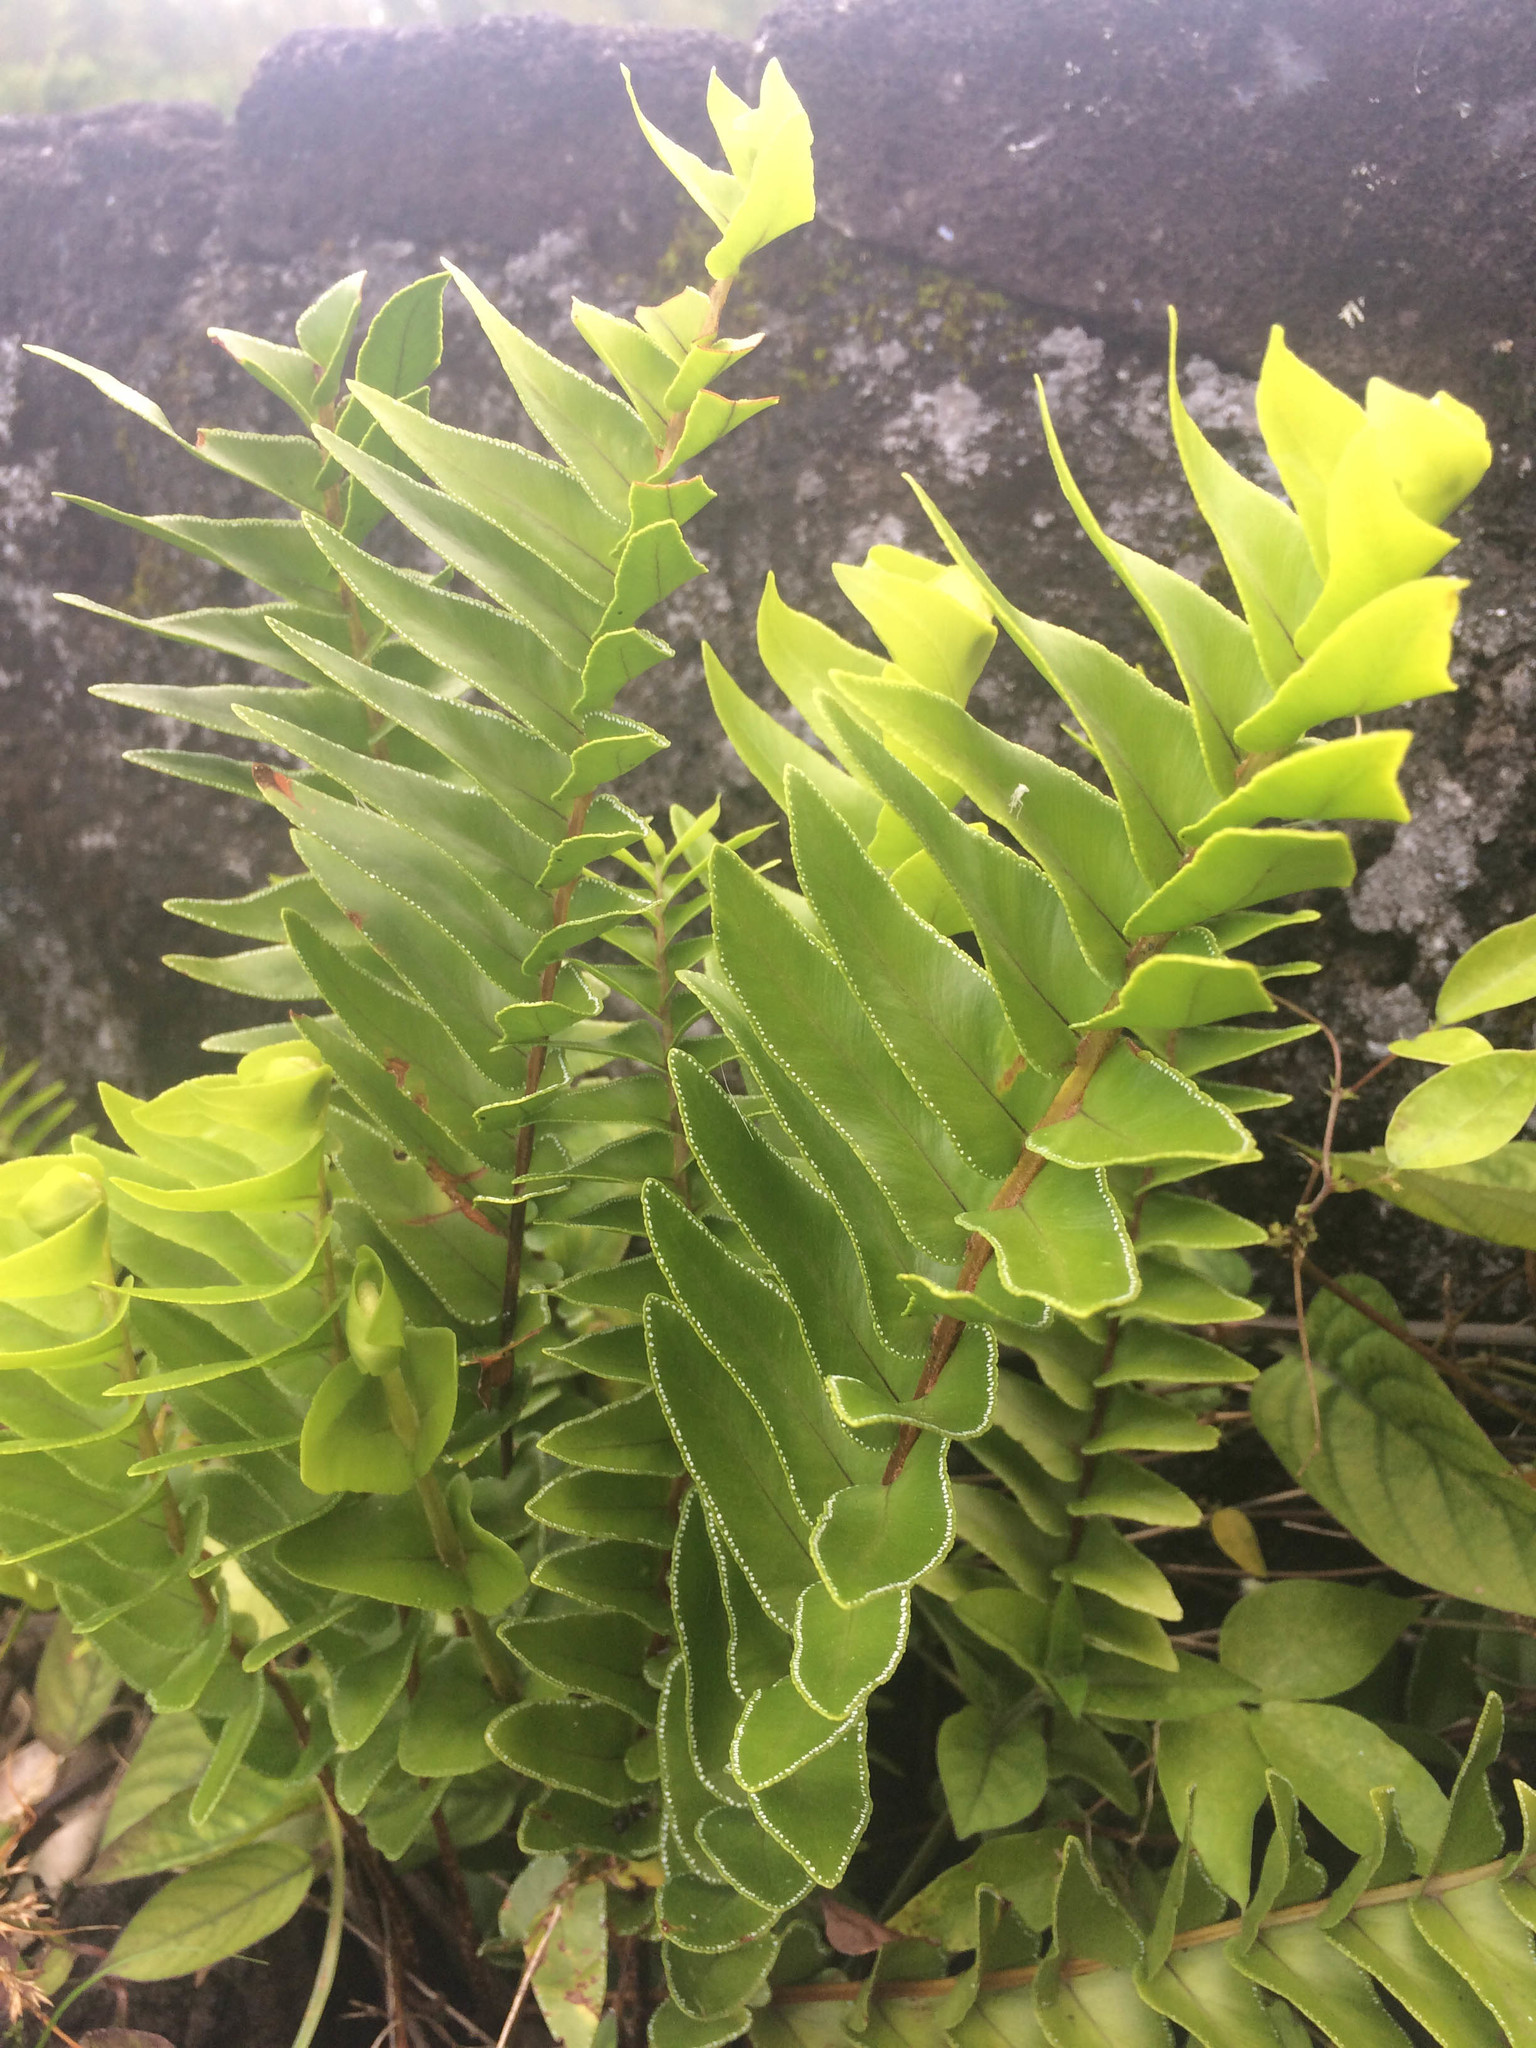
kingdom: Plantae
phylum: Tracheophyta
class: Polypodiopsida
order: Polypodiales
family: Nephrolepidaceae
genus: Nephrolepis
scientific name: Nephrolepis abrupta
